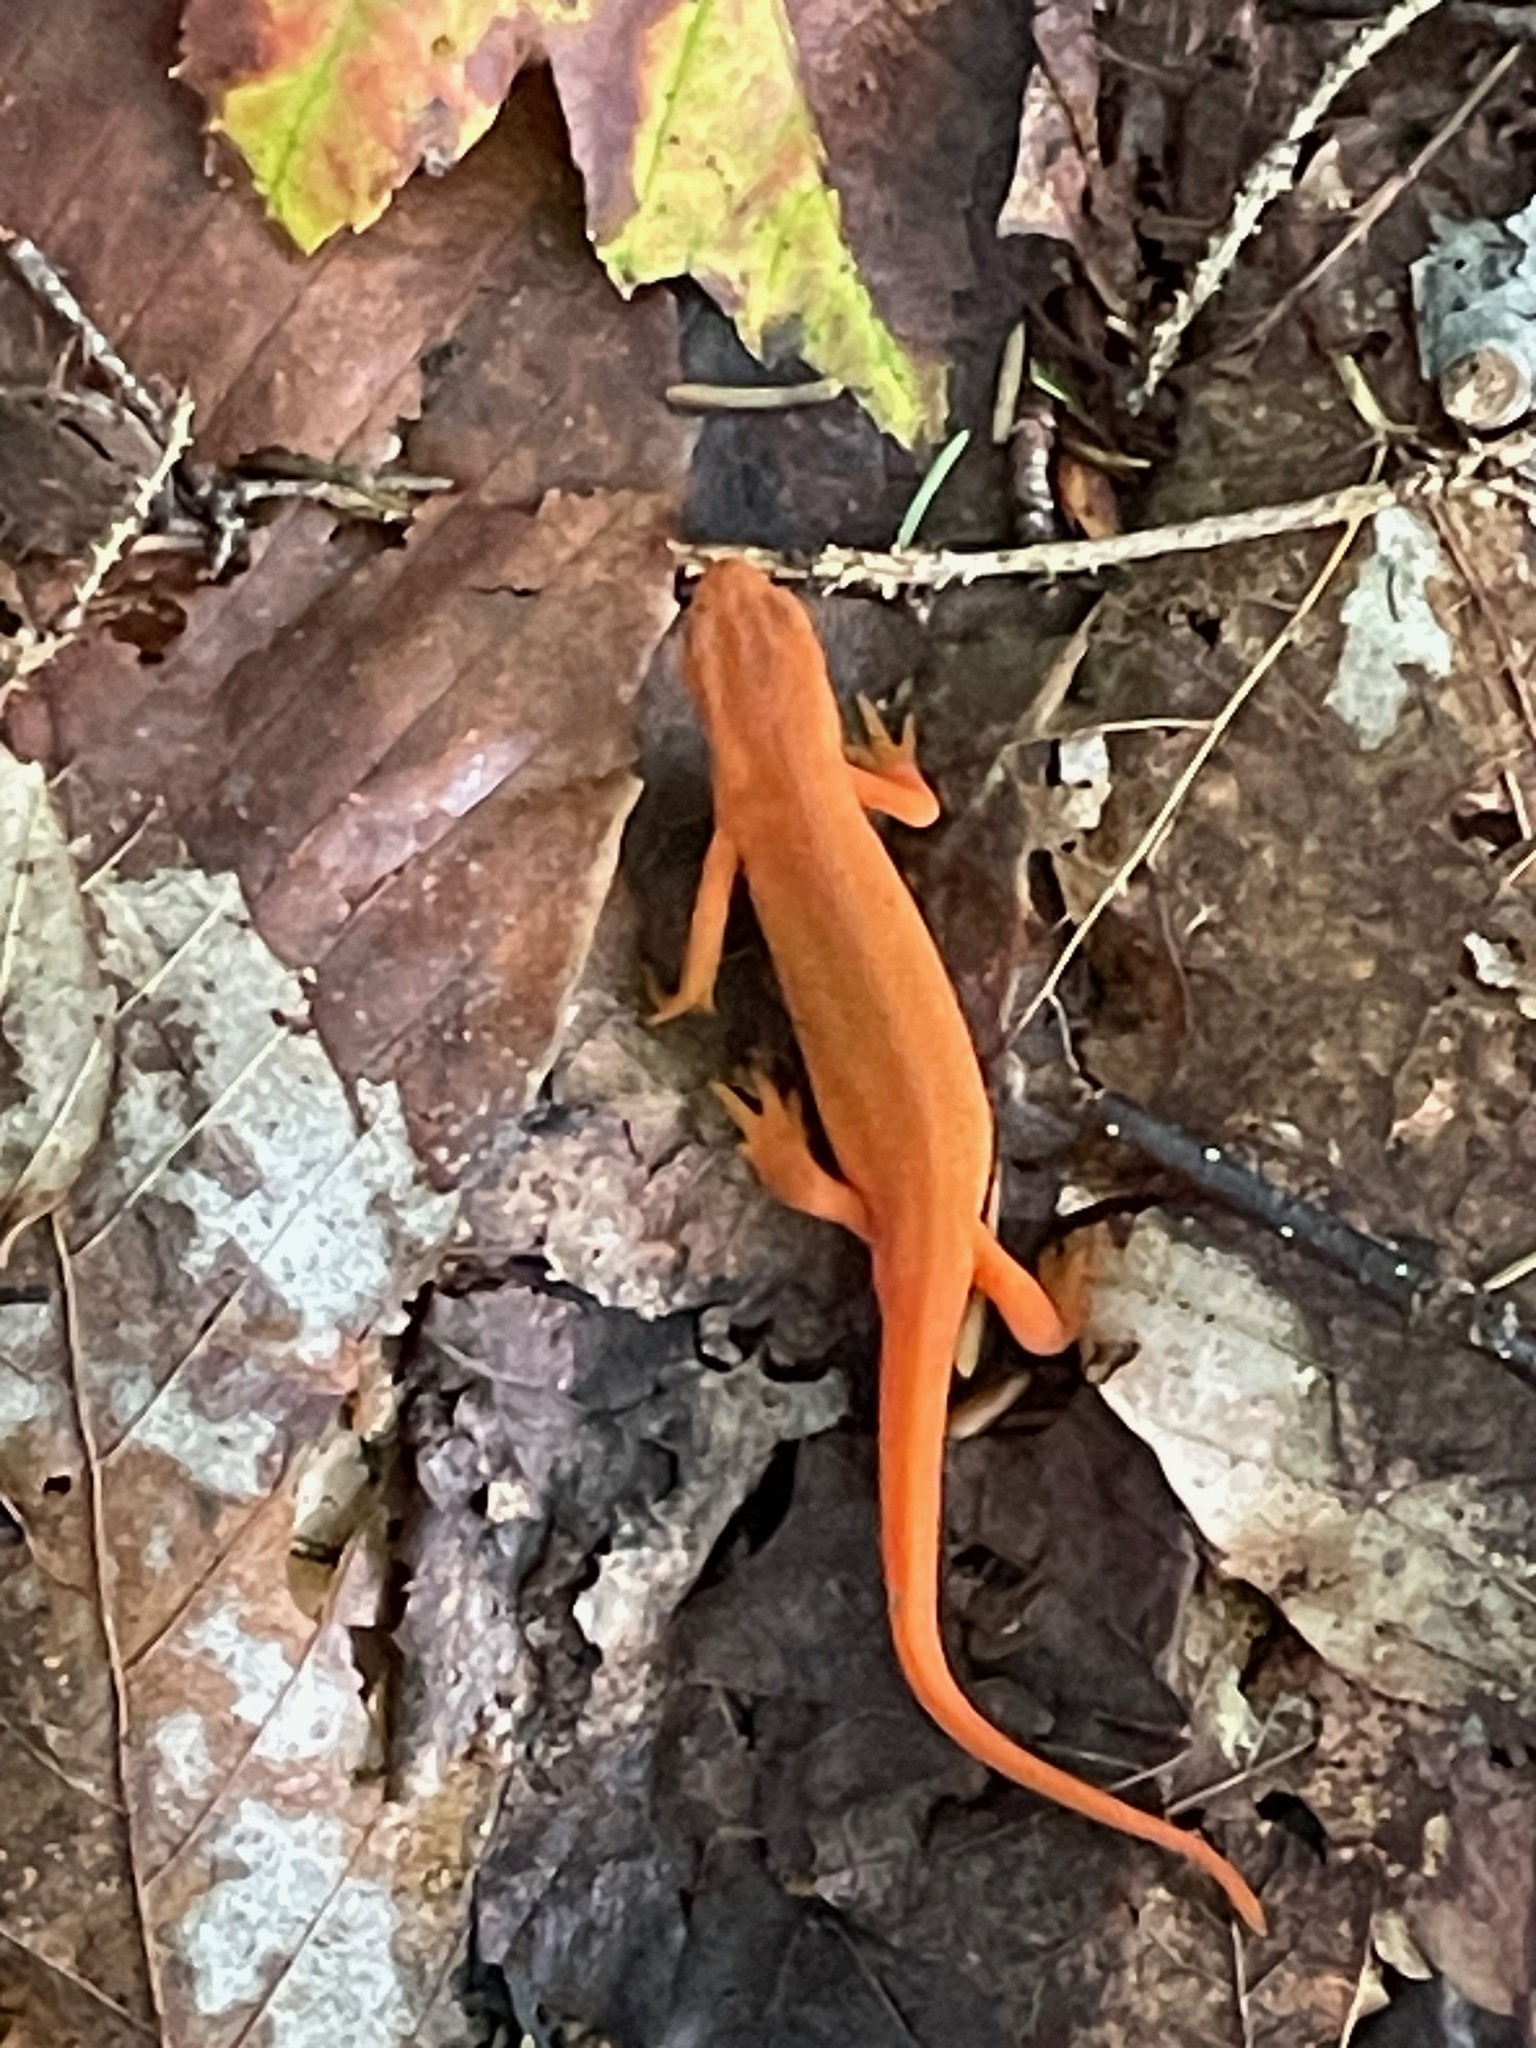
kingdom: Animalia
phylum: Chordata
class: Amphibia
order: Caudata
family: Salamandridae
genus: Notophthalmus
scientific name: Notophthalmus viridescens
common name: Eastern newt
